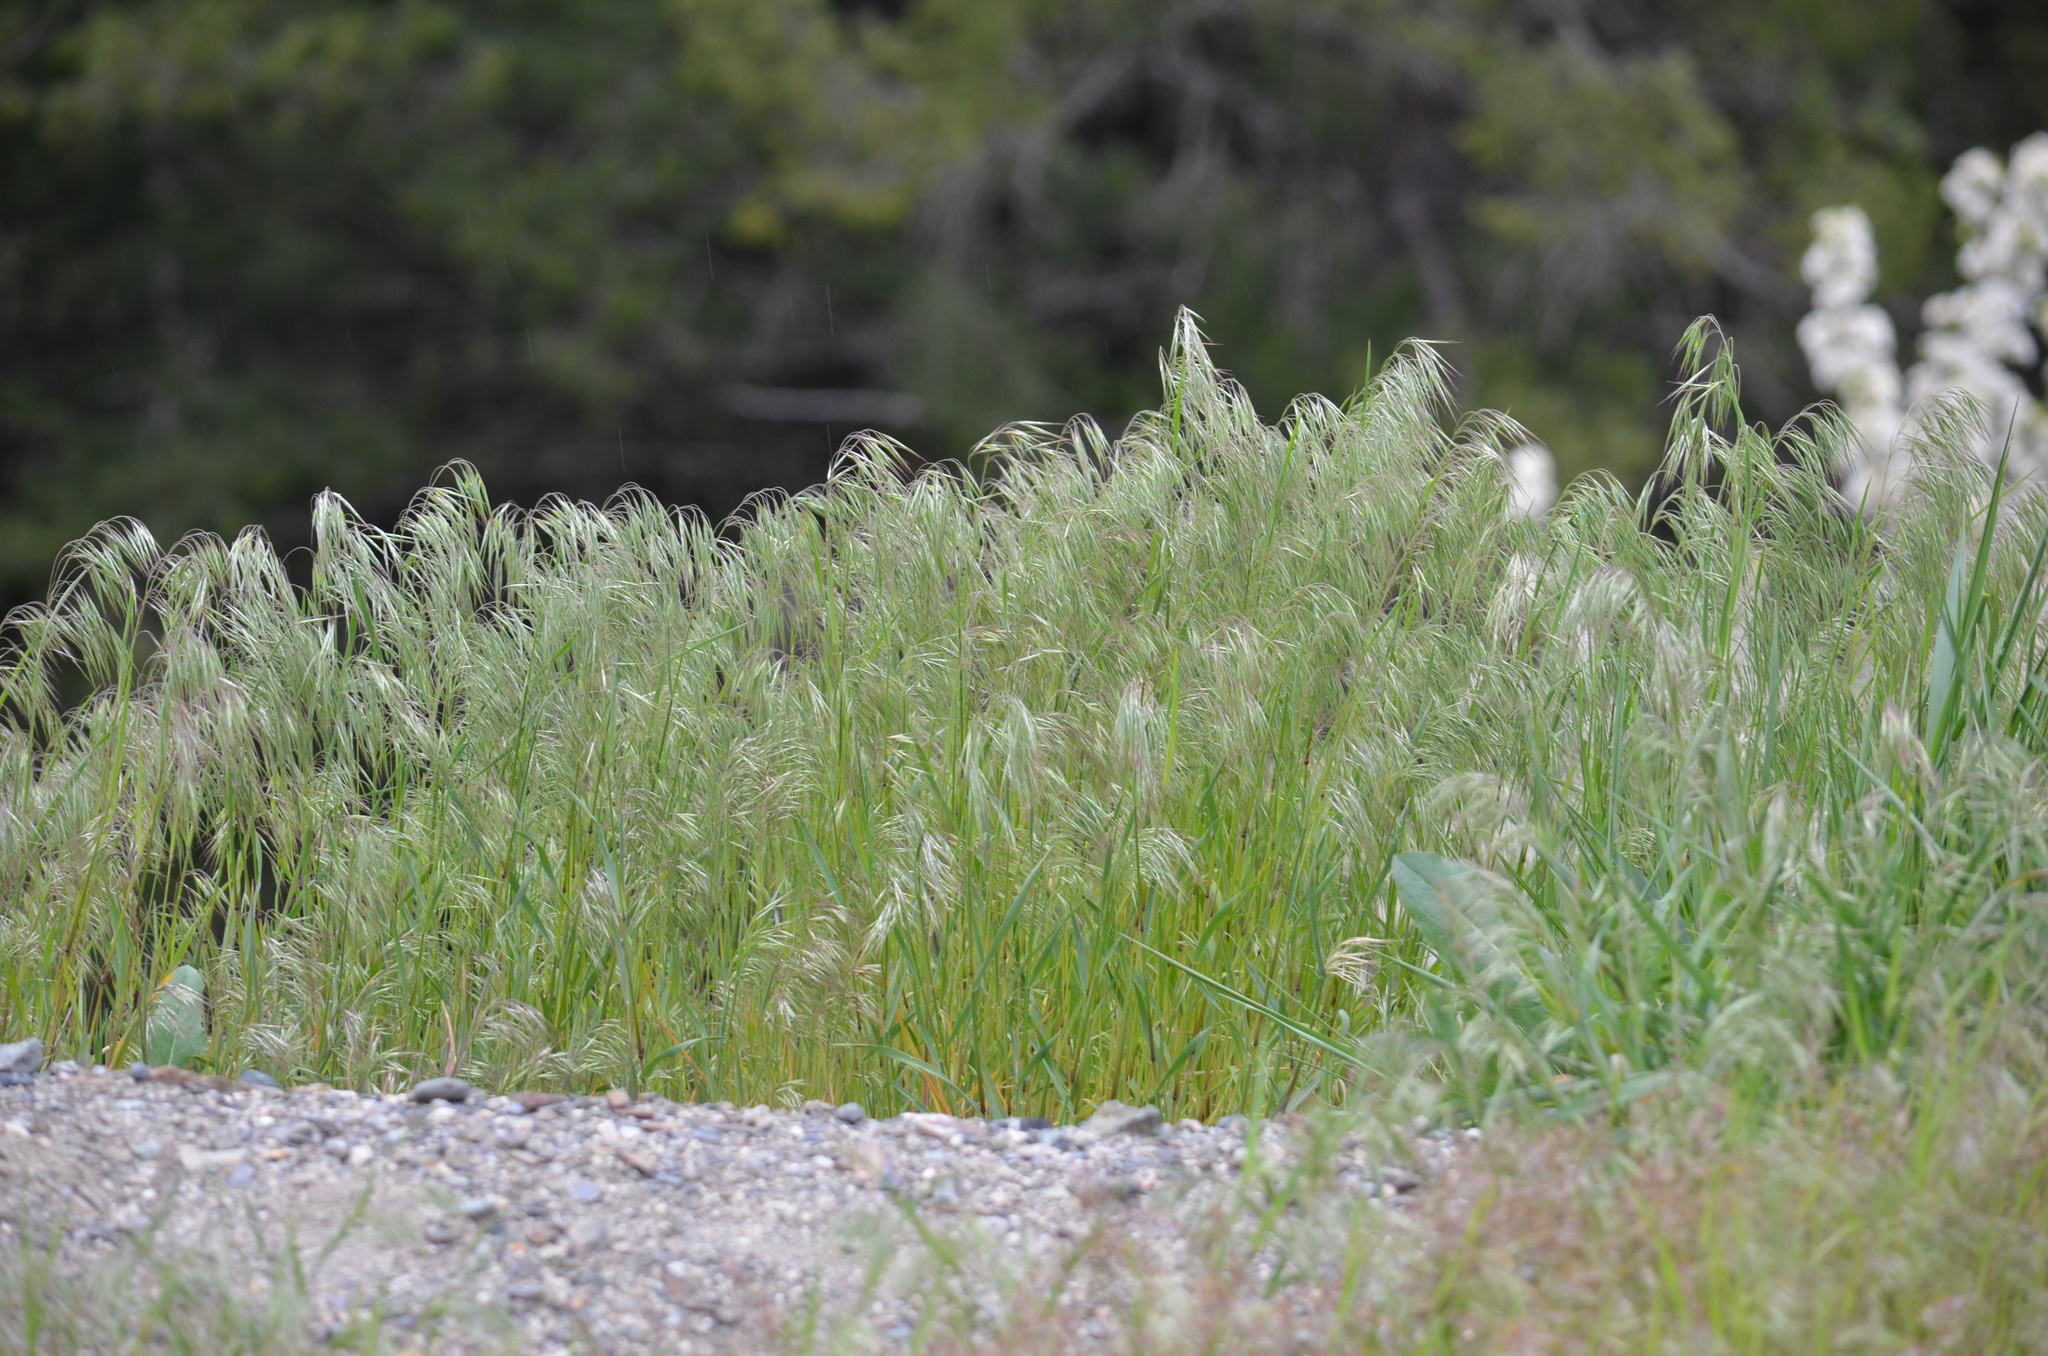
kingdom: Plantae
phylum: Tracheophyta
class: Liliopsida
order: Poales
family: Poaceae
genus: Bromus
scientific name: Bromus tectorum
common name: Cheatgrass
